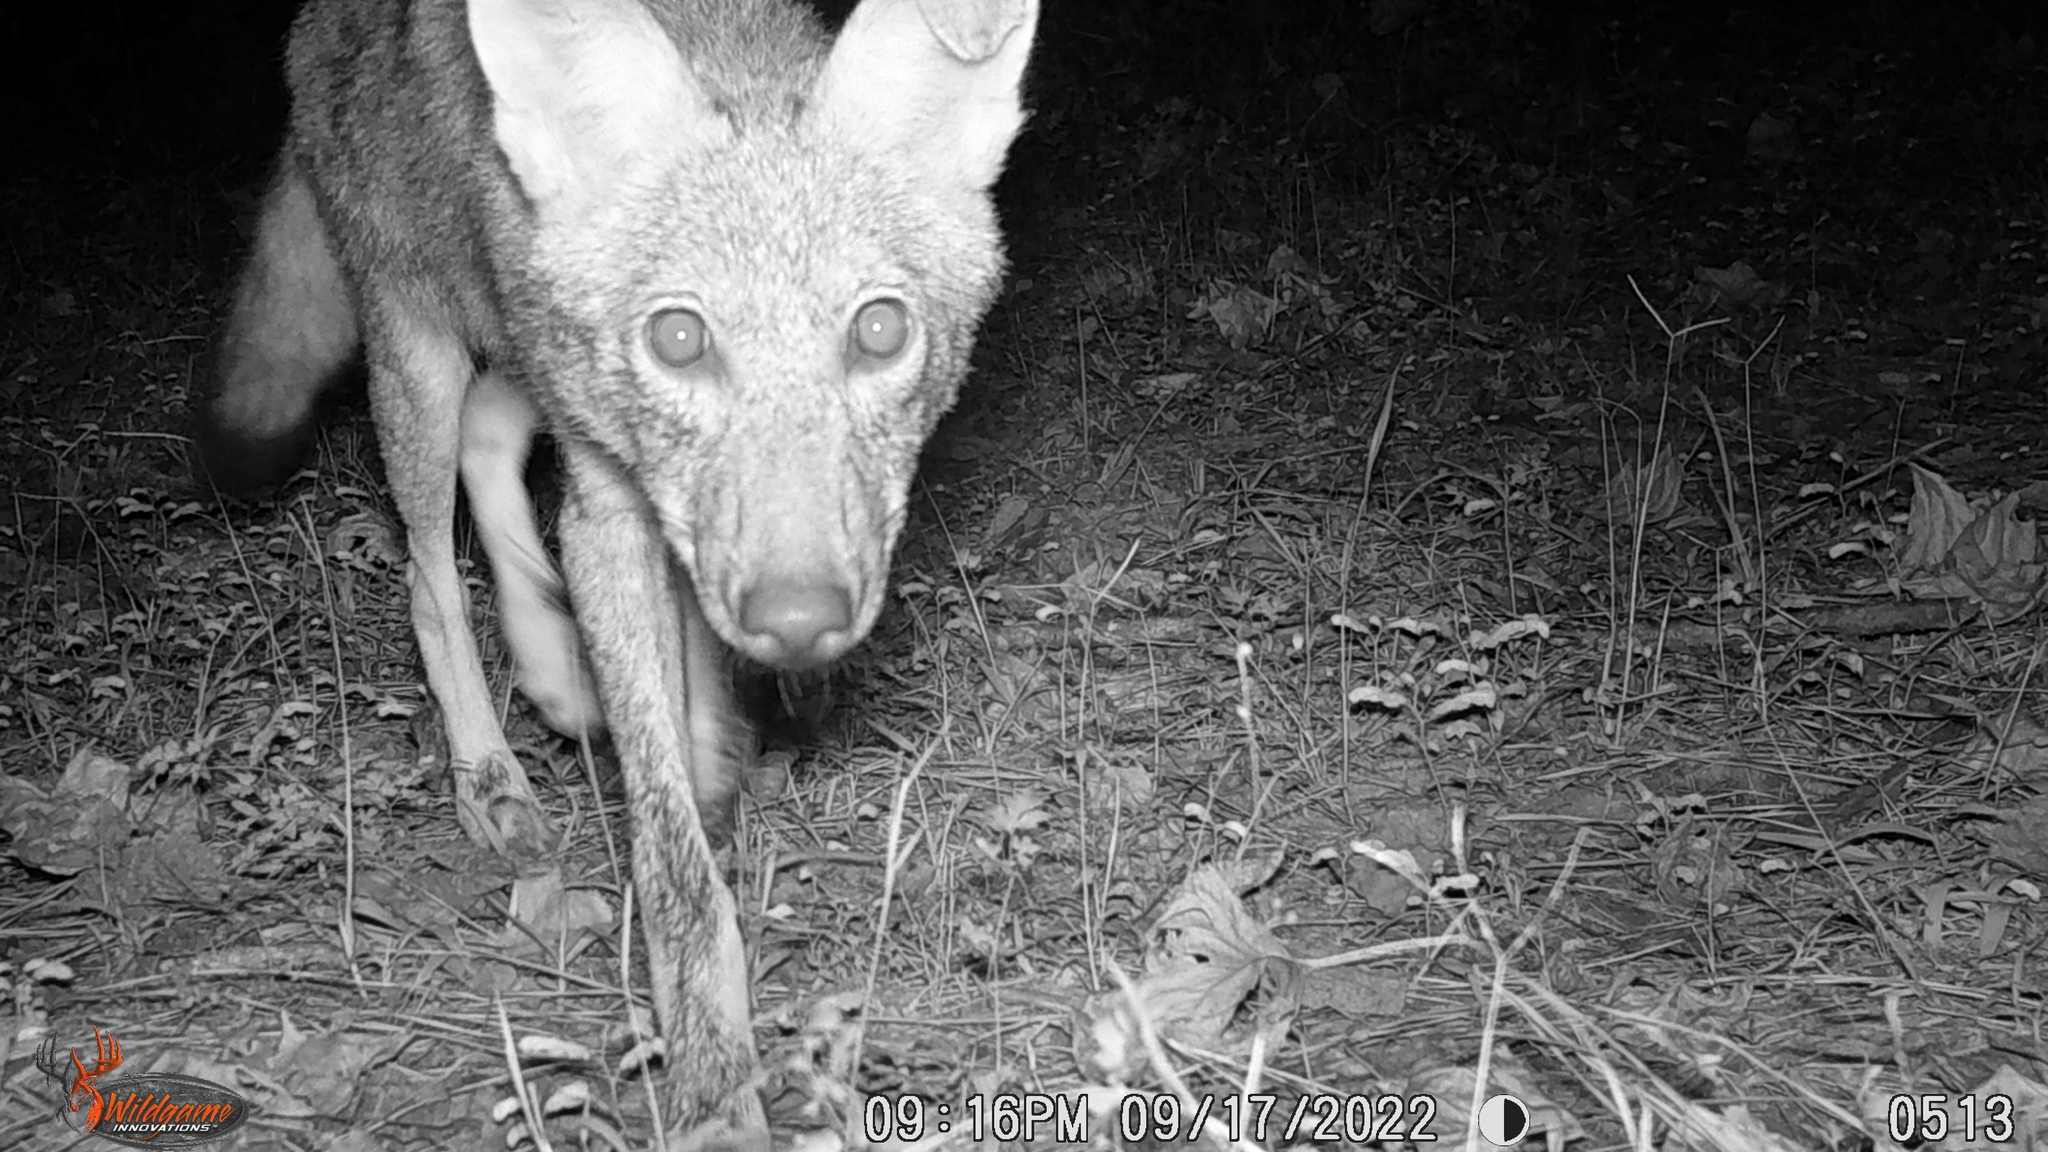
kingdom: Animalia
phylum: Chordata
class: Mammalia
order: Carnivora
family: Canidae
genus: Canis
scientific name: Canis latrans
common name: Coyote
